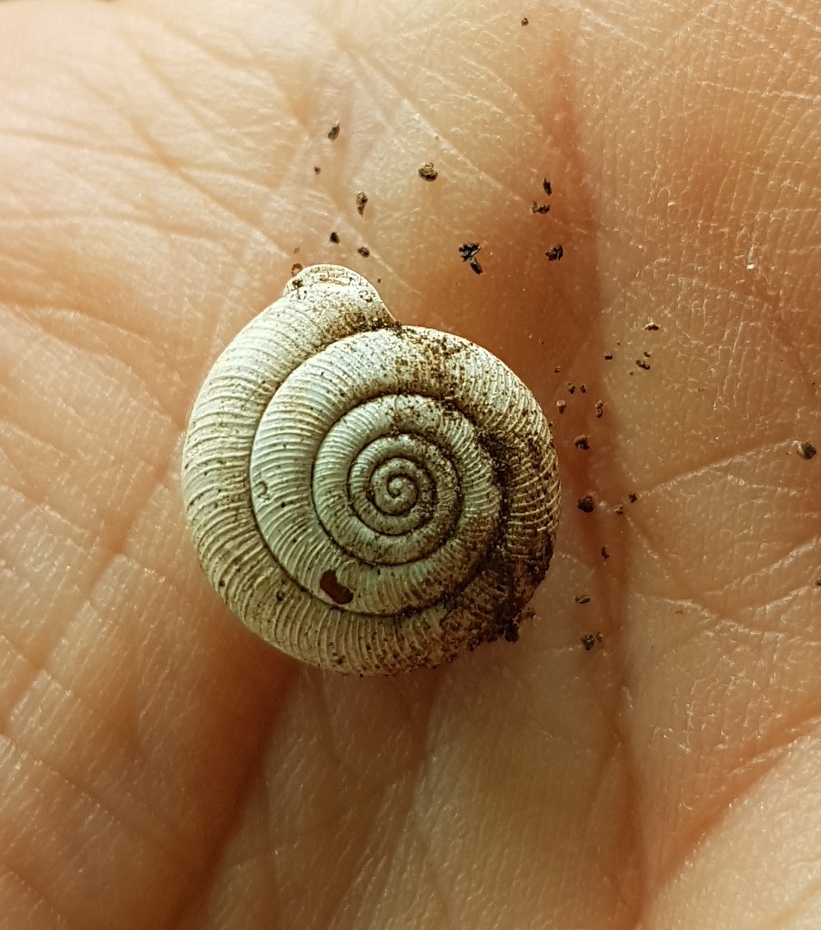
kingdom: Animalia
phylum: Mollusca
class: Gastropoda
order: Stylommatophora
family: Trissexodontidae
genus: Oestophora
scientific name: Oestophora lusitanica
